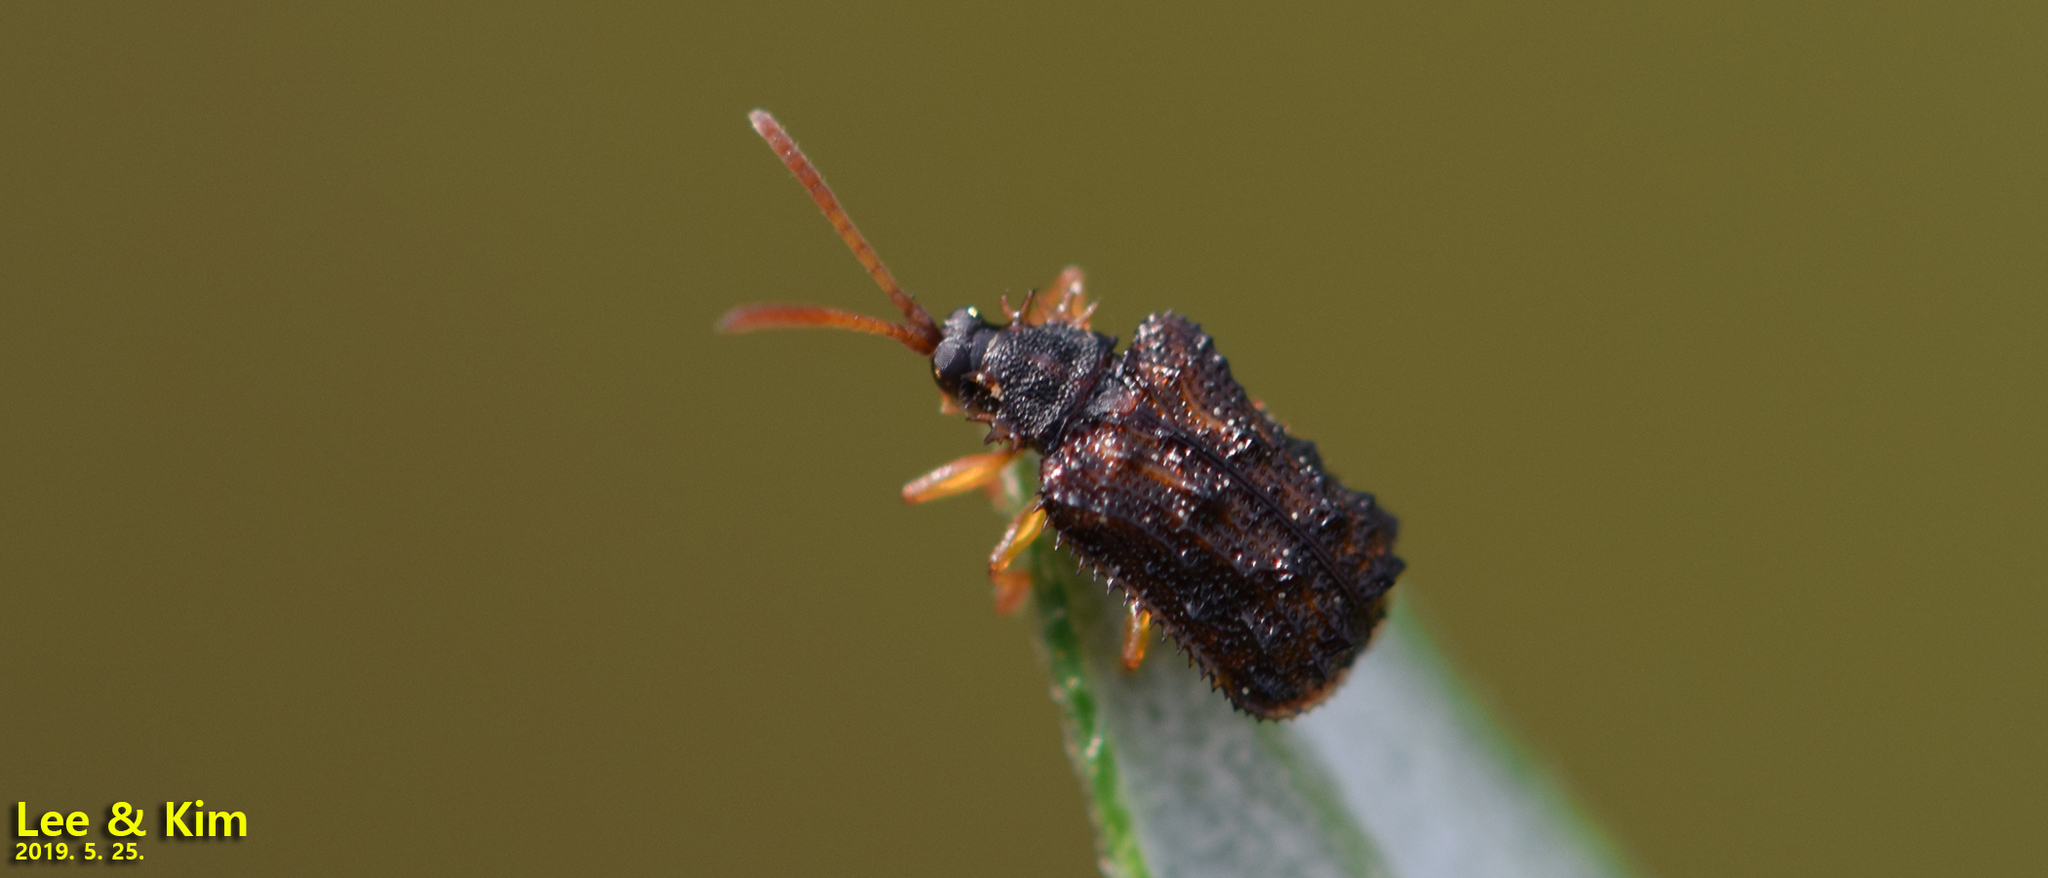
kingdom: Animalia
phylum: Arthropoda
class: Insecta
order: Coleoptera
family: Chrysomelidae
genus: Dactylispa
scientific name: Dactylispa angulosa
